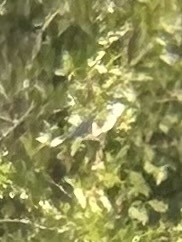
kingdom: Animalia
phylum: Chordata
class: Aves
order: Coraciiformes
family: Alcedinidae
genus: Megaceryle
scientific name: Megaceryle alcyon
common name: Belted kingfisher
